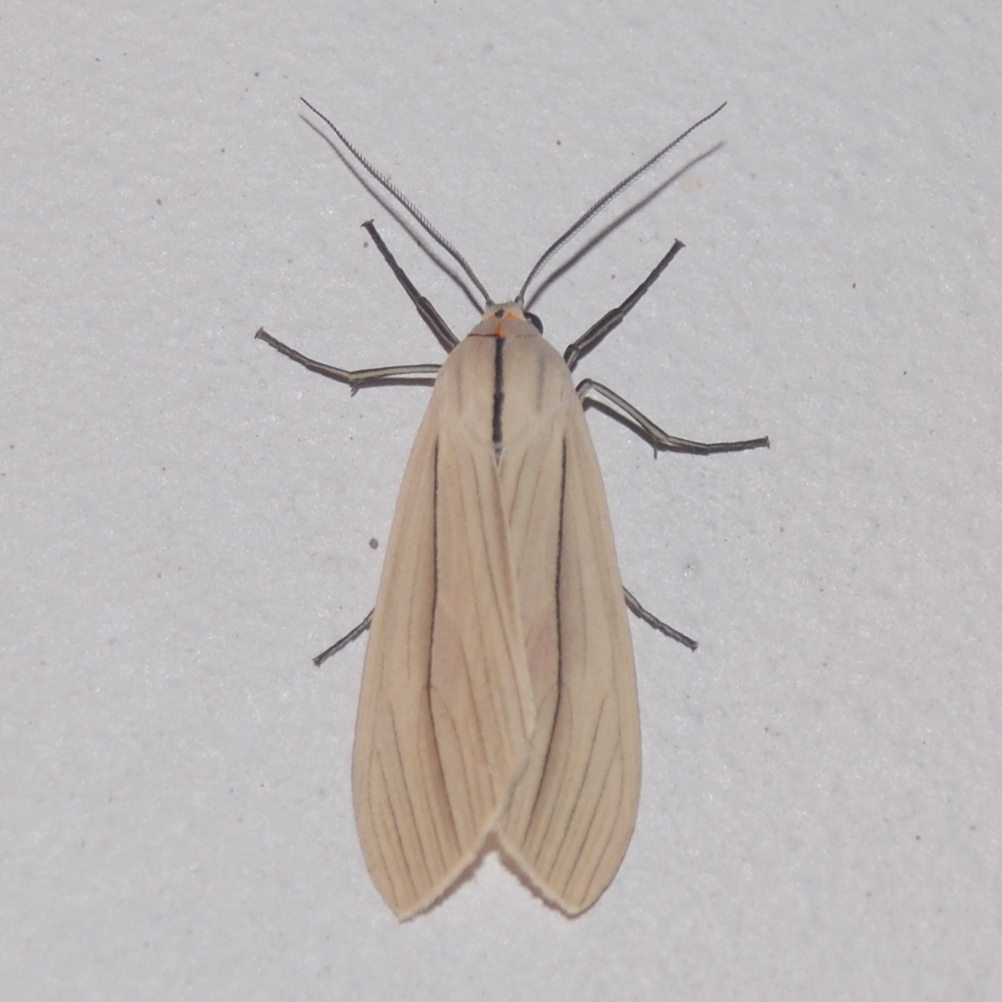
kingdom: Animalia
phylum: Arthropoda
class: Insecta
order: Lepidoptera
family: Erebidae
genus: Biturix
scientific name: Biturix rectilinea
